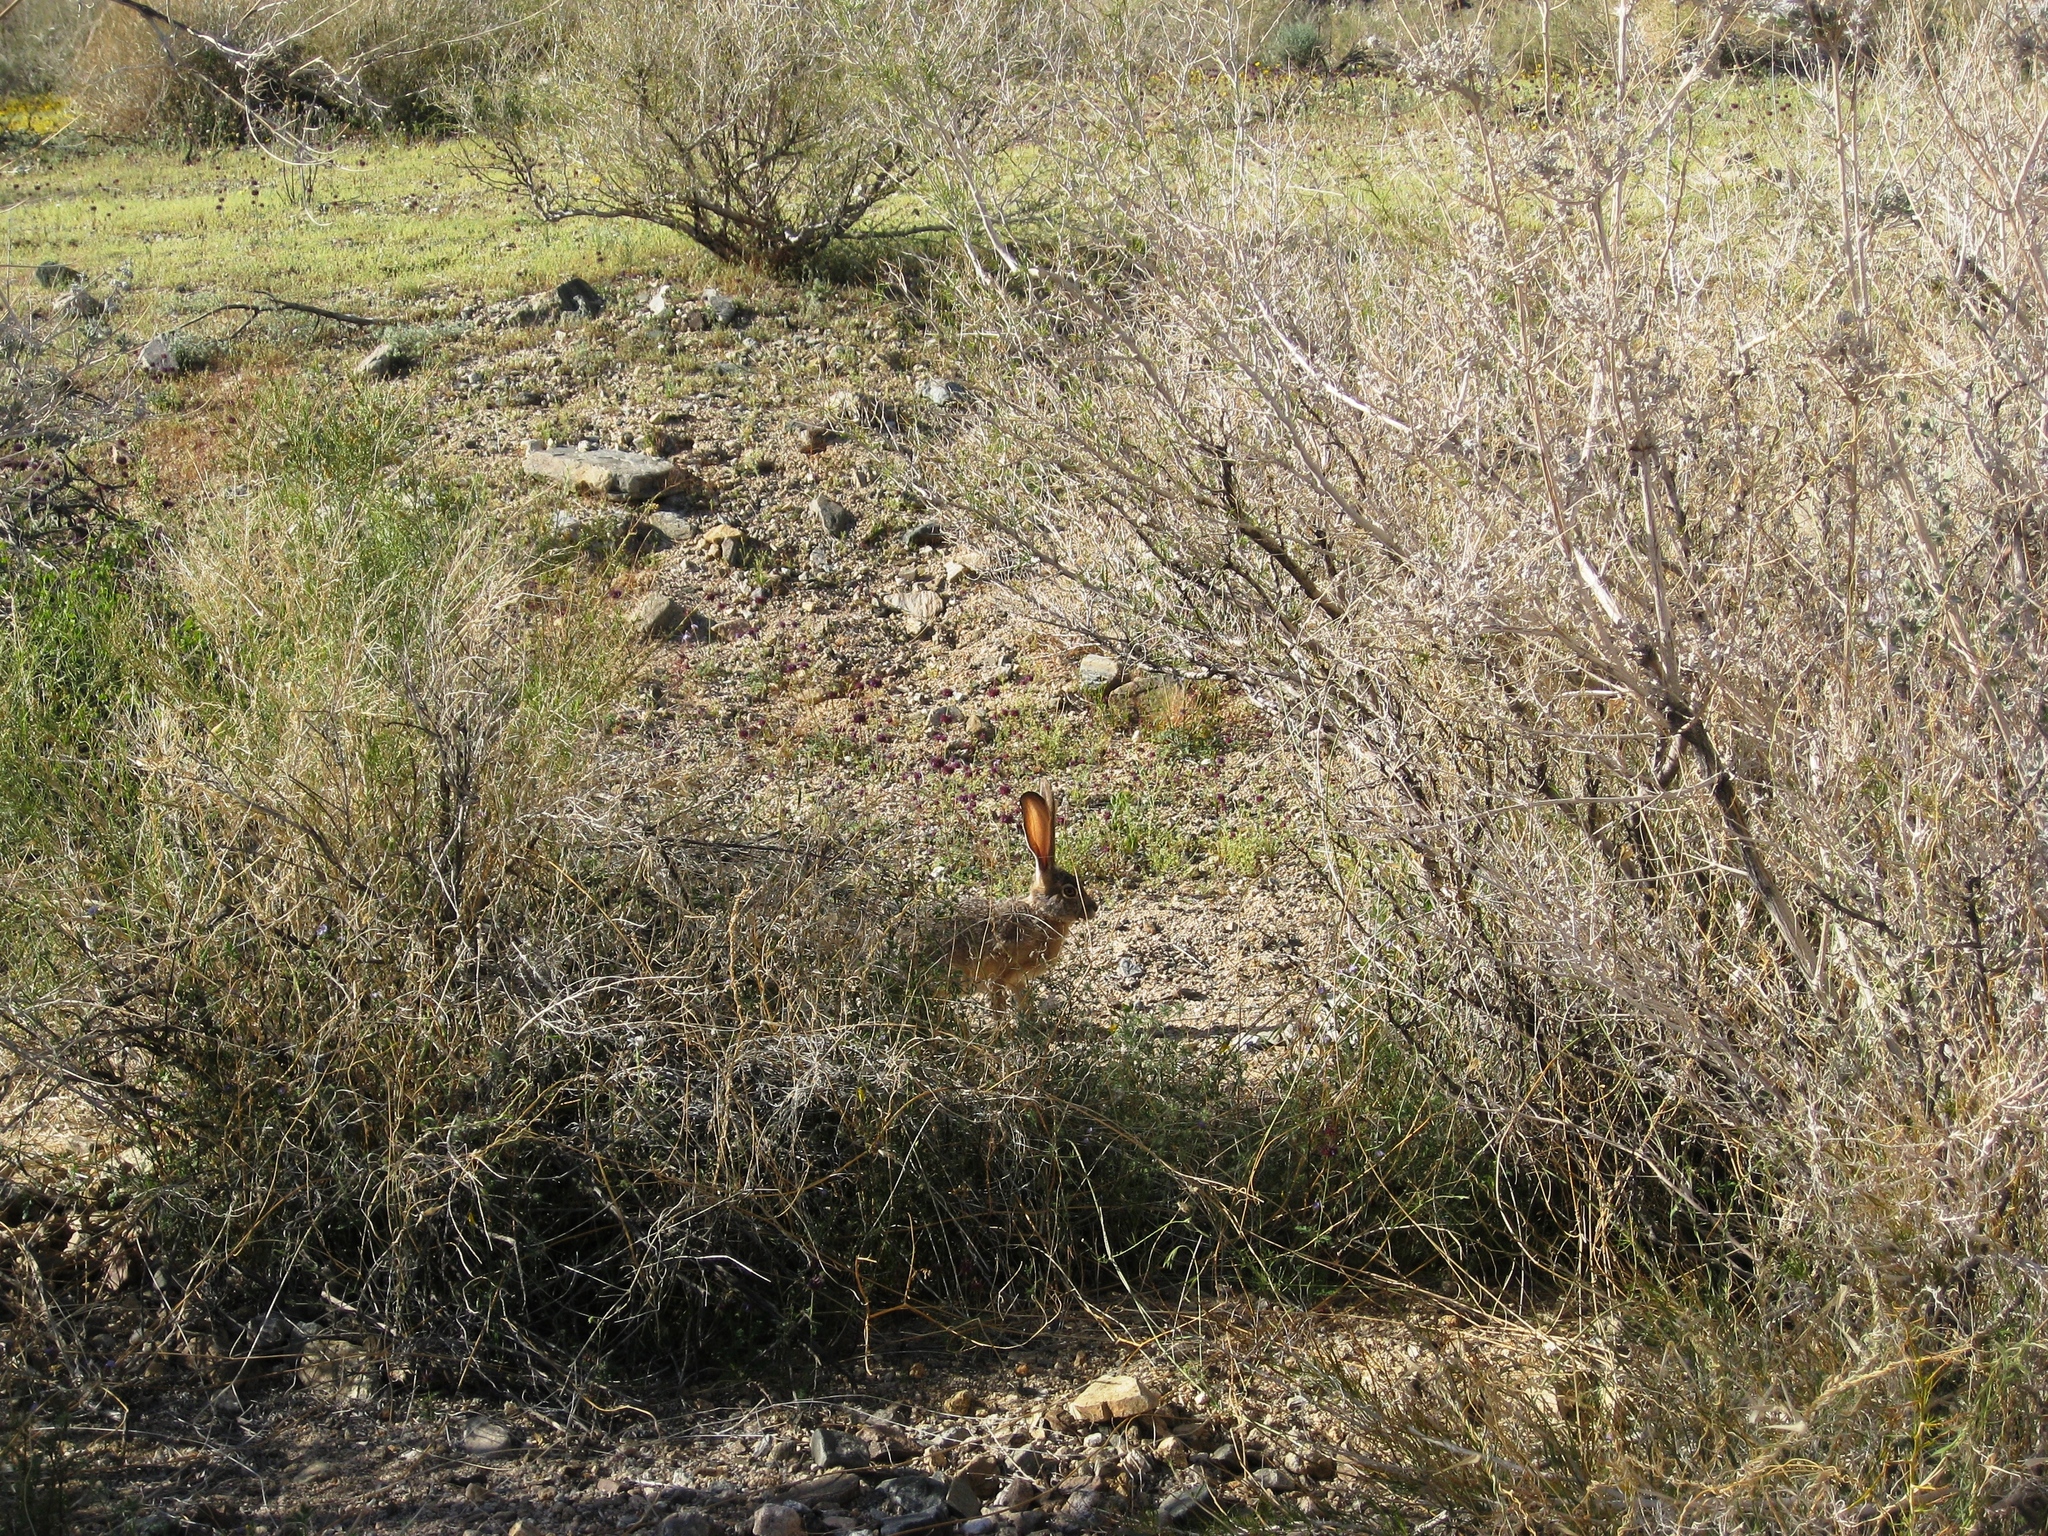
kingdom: Animalia
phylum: Chordata
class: Mammalia
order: Lagomorpha
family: Leporidae
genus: Lepus
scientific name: Lepus californicus
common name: Black-tailed jackrabbit
